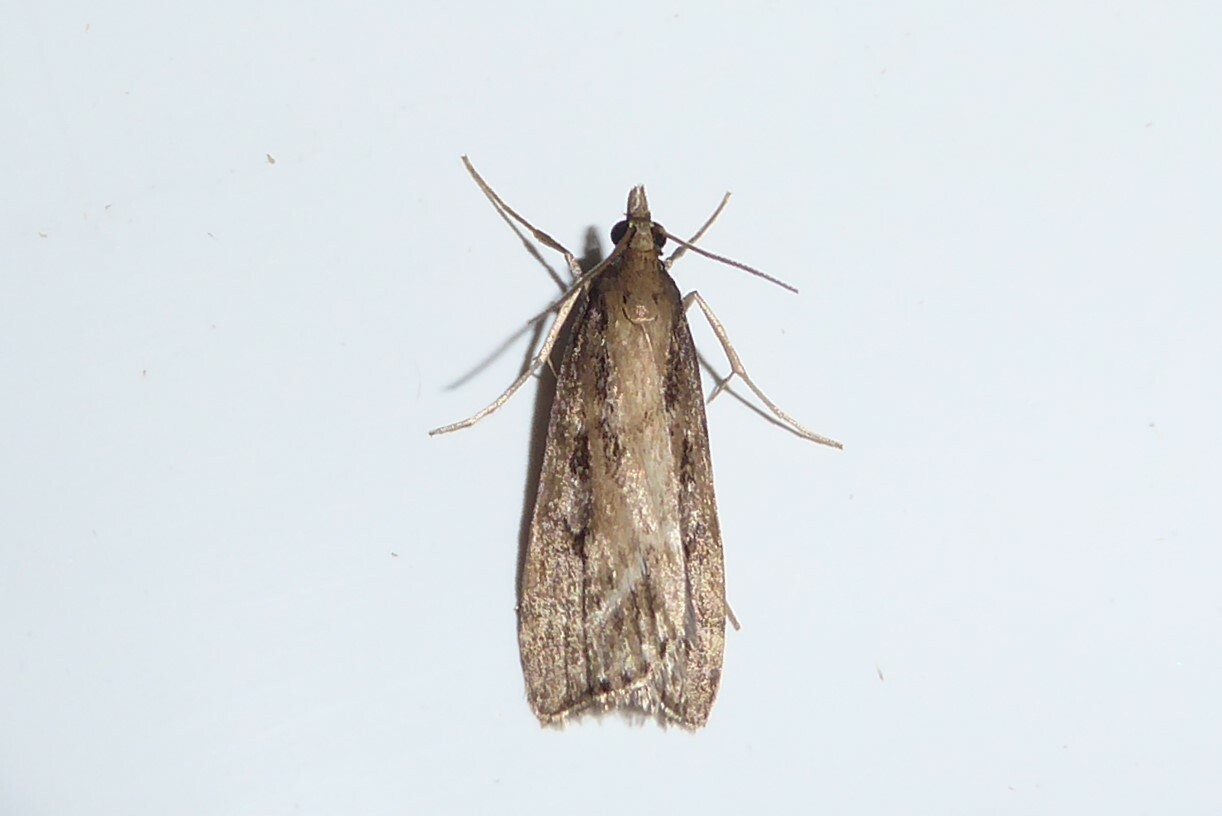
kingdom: Animalia
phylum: Arthropoda
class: Insecta
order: Lepidoptera
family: Crambidae
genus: Eudonia
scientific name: Eudonia octophora
